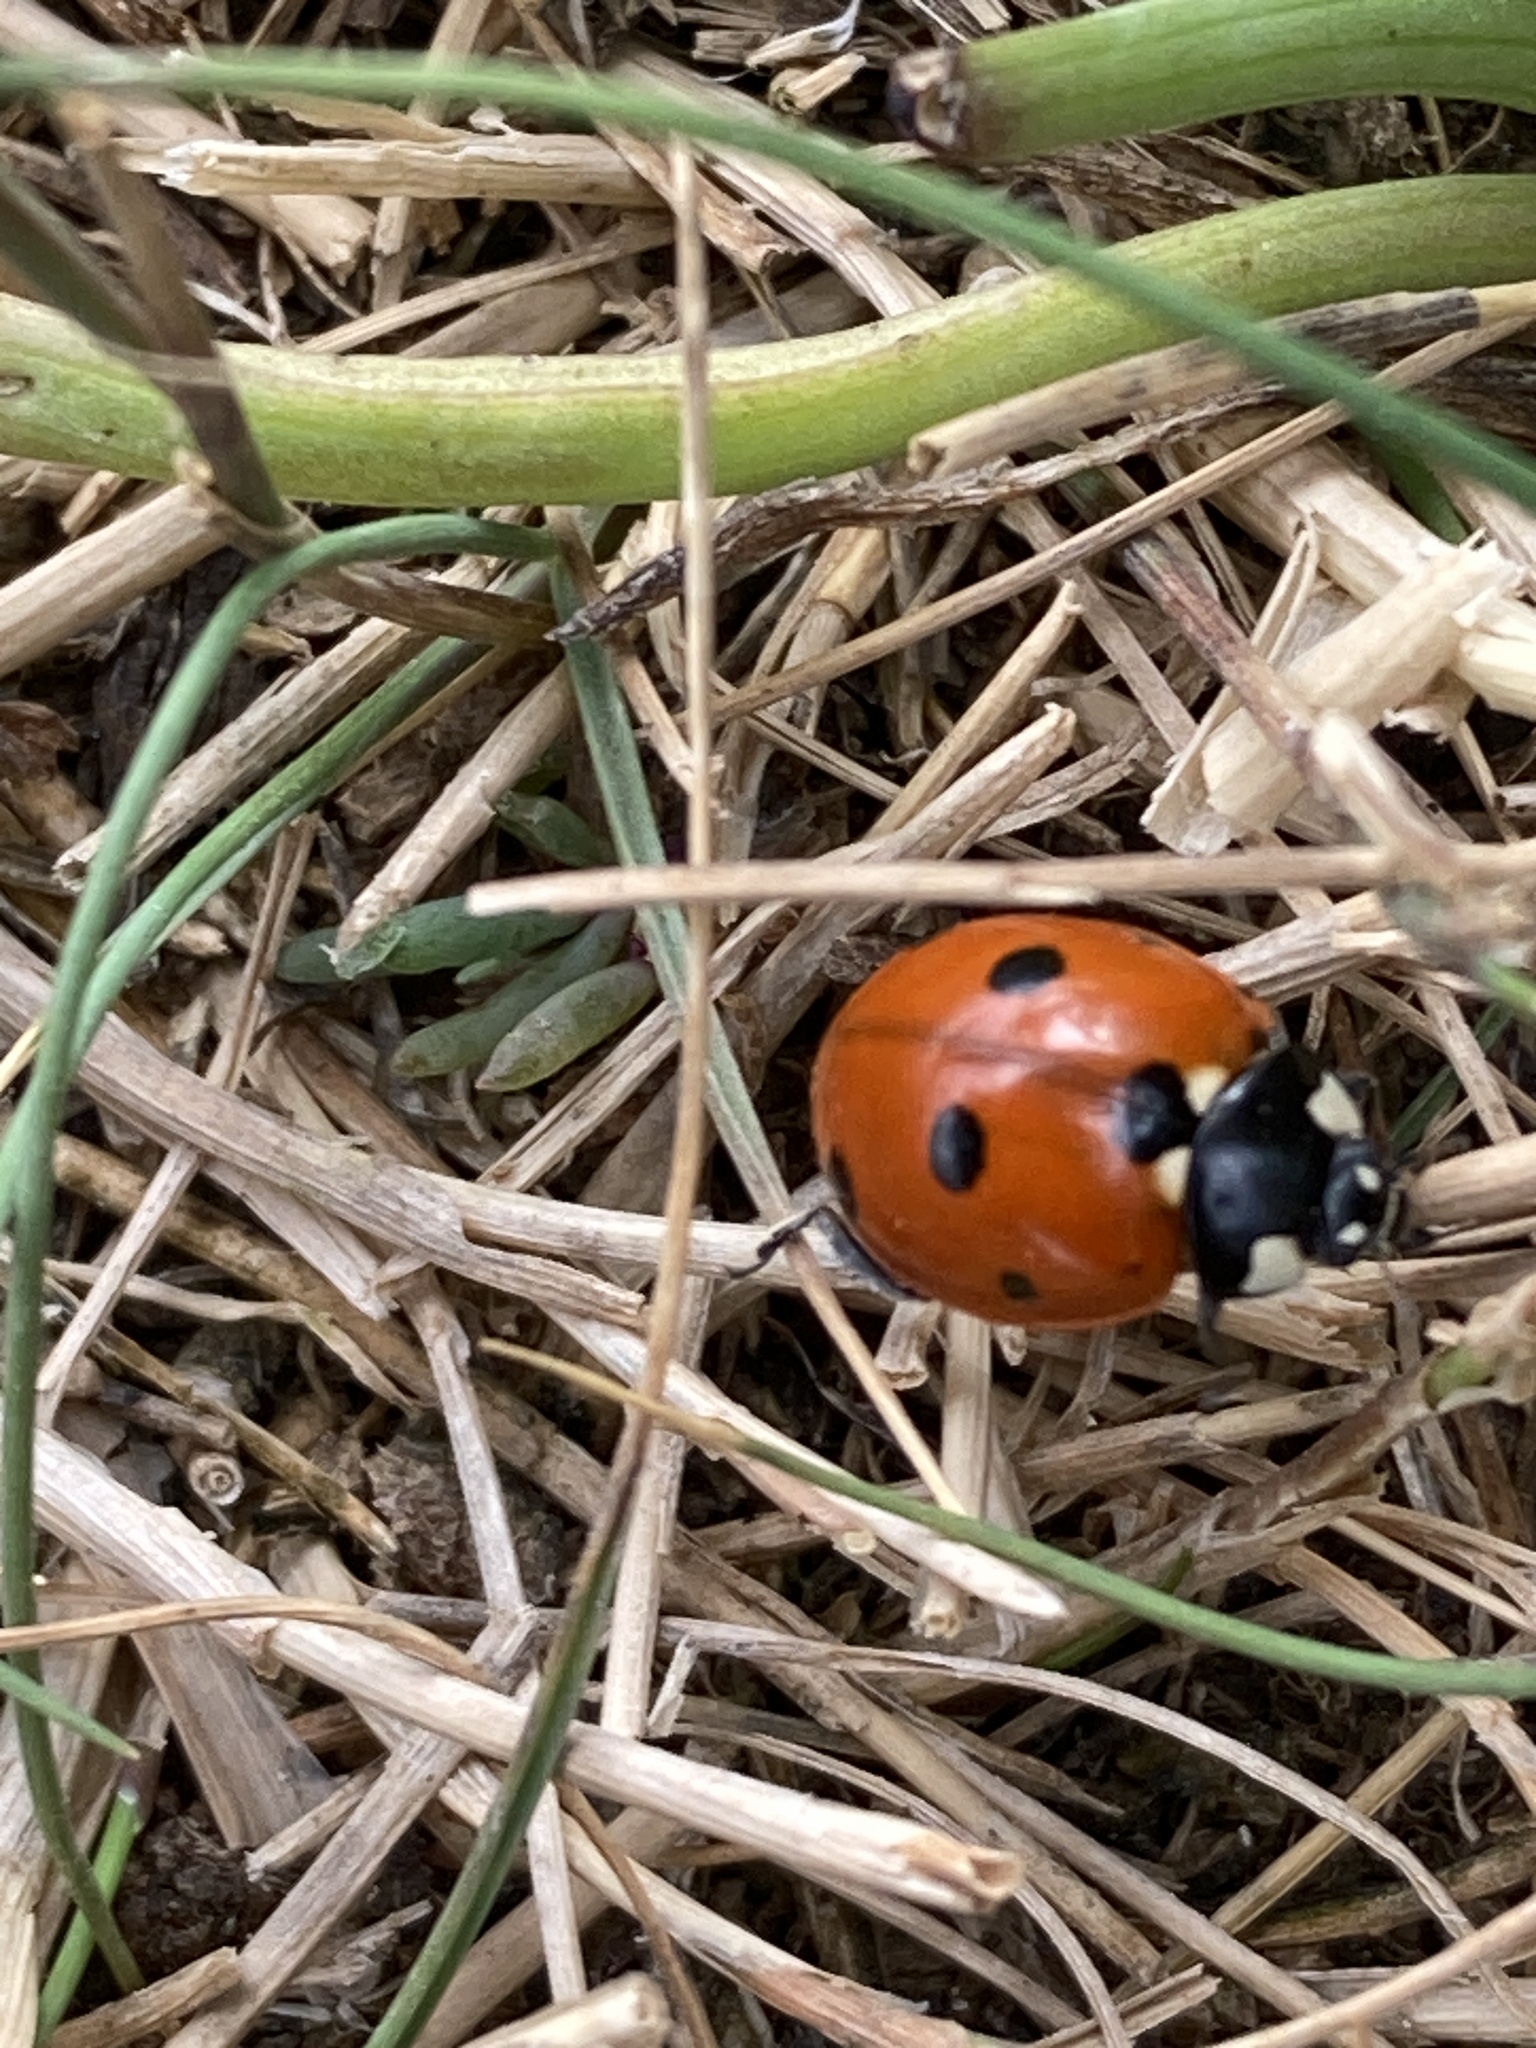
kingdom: Animalia
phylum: Arthropoda
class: Insecta
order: Coleoptera
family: Coccinellidae
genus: Coccinella
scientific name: Coccinella septempunctata
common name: Sevenspotted lady beetle
